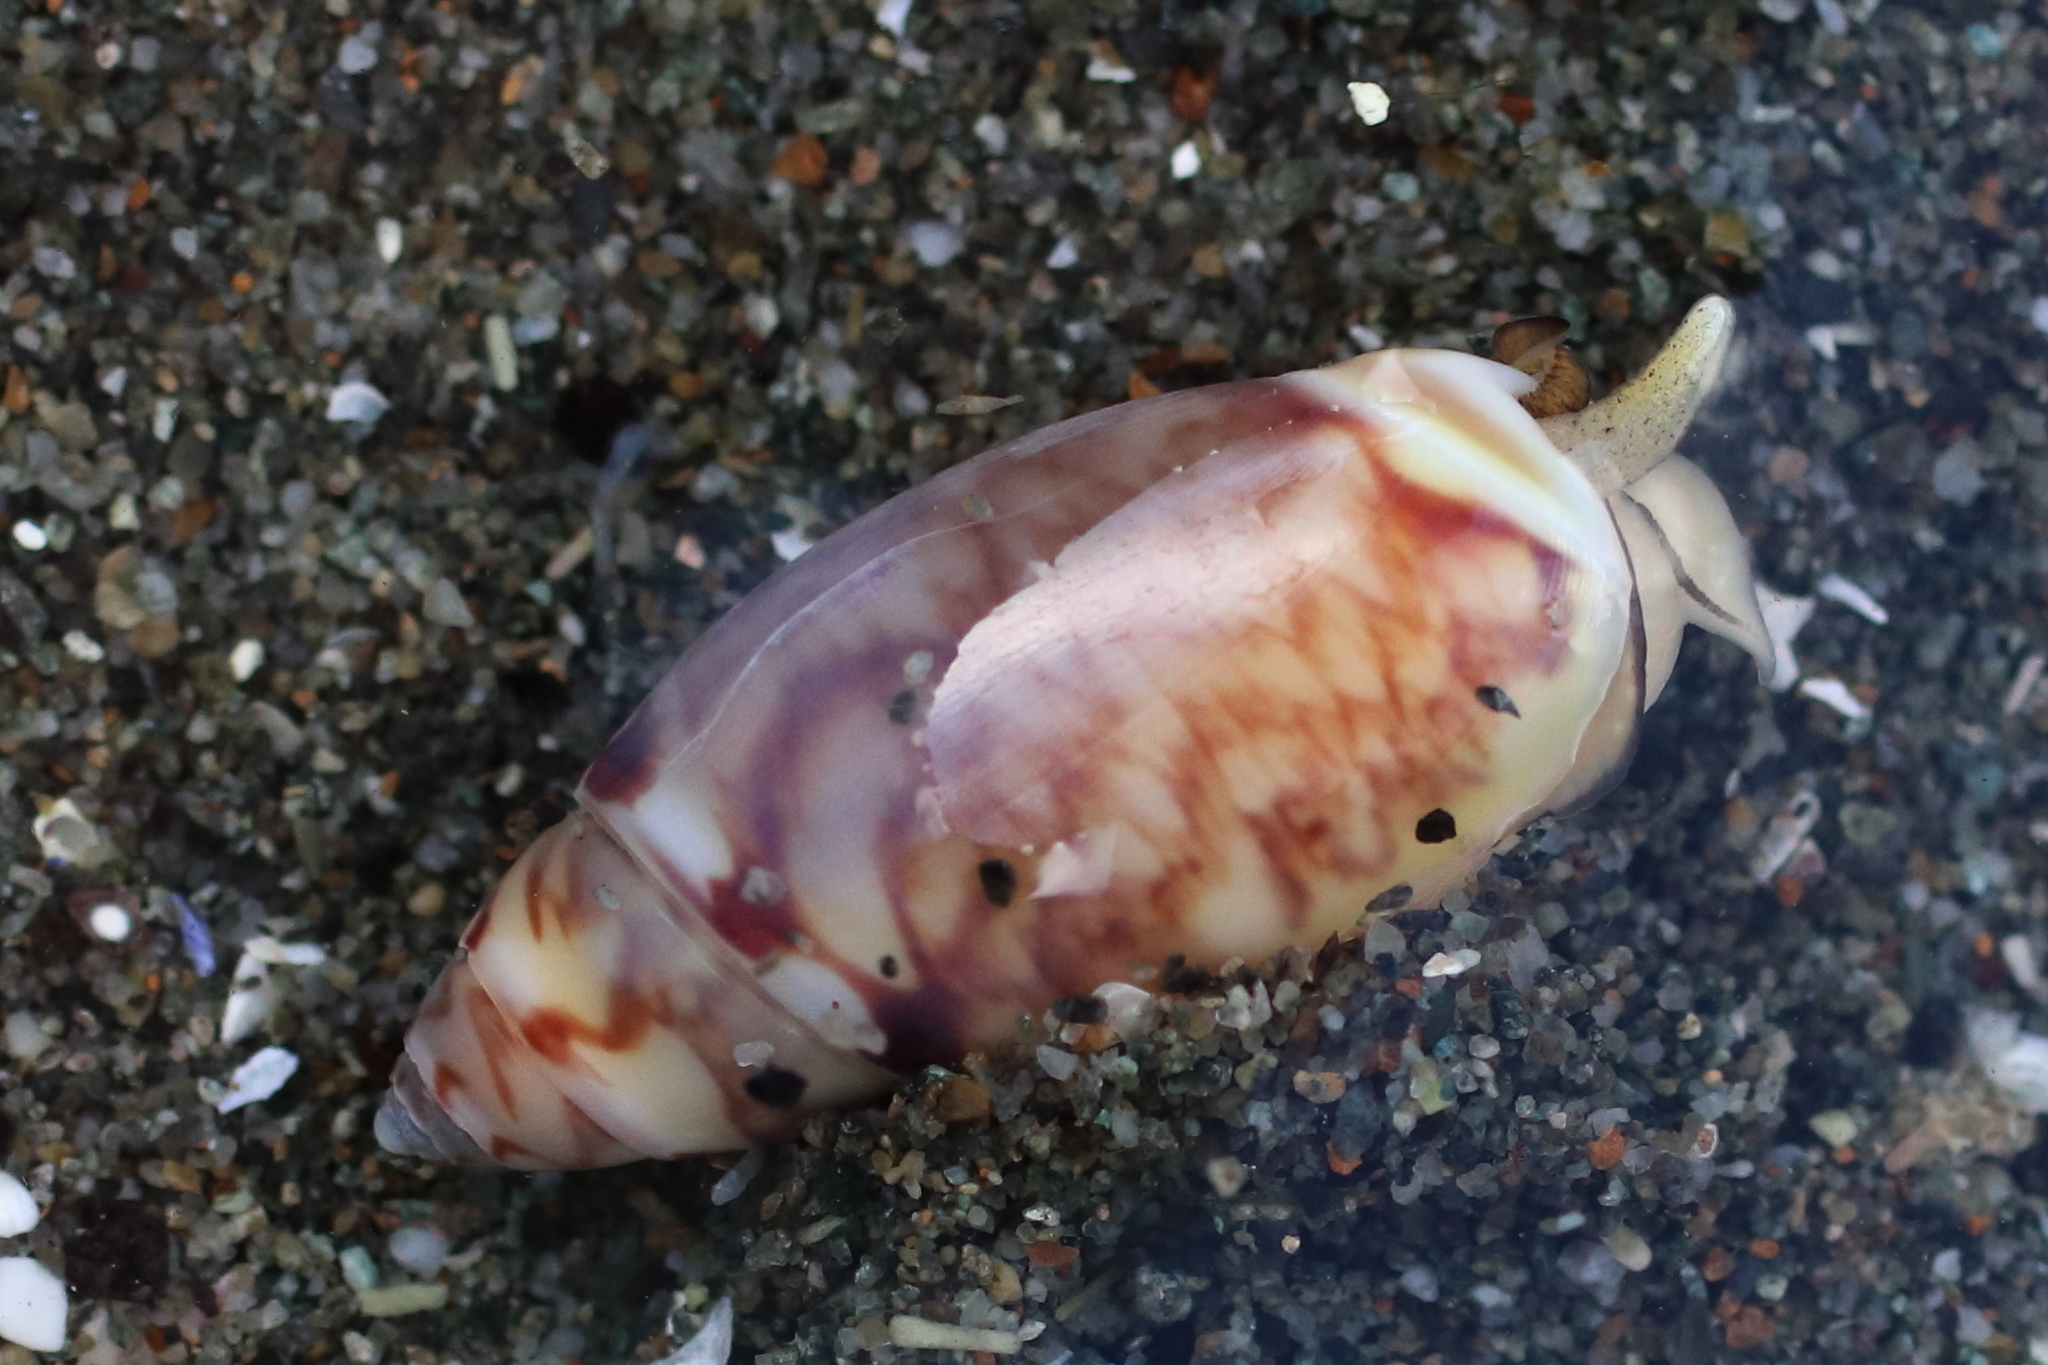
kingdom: Animalia
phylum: Mollusca
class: Gastropoda
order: Neogastropoda
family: Olividae
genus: Callianax
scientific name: Callianax alectona
